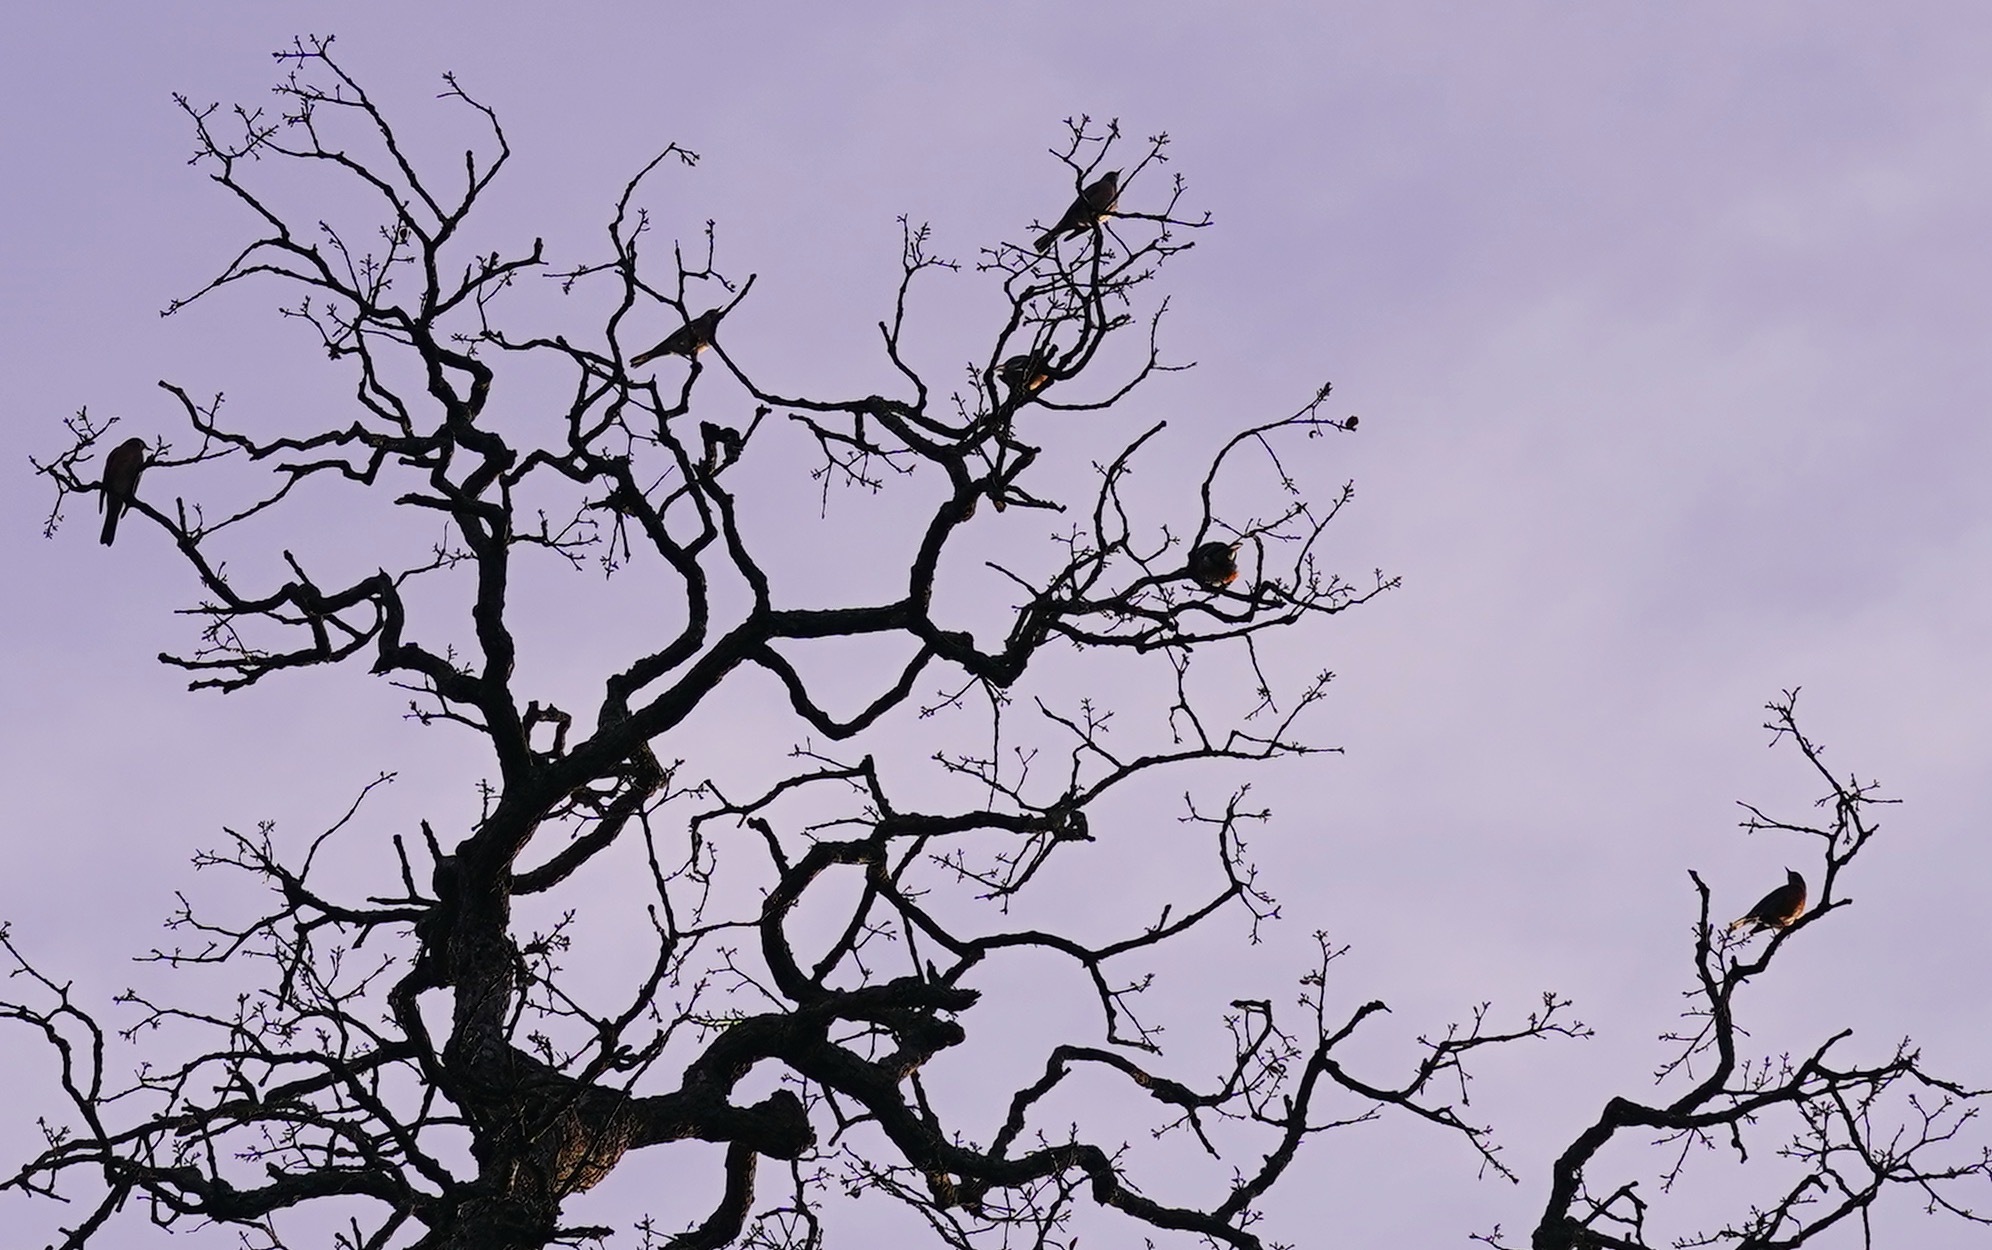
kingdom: Animalia
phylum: Chordata
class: Aves
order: Passeriformes
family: Turdidae
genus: Turdus
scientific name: Turdus migratorius
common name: American robin
